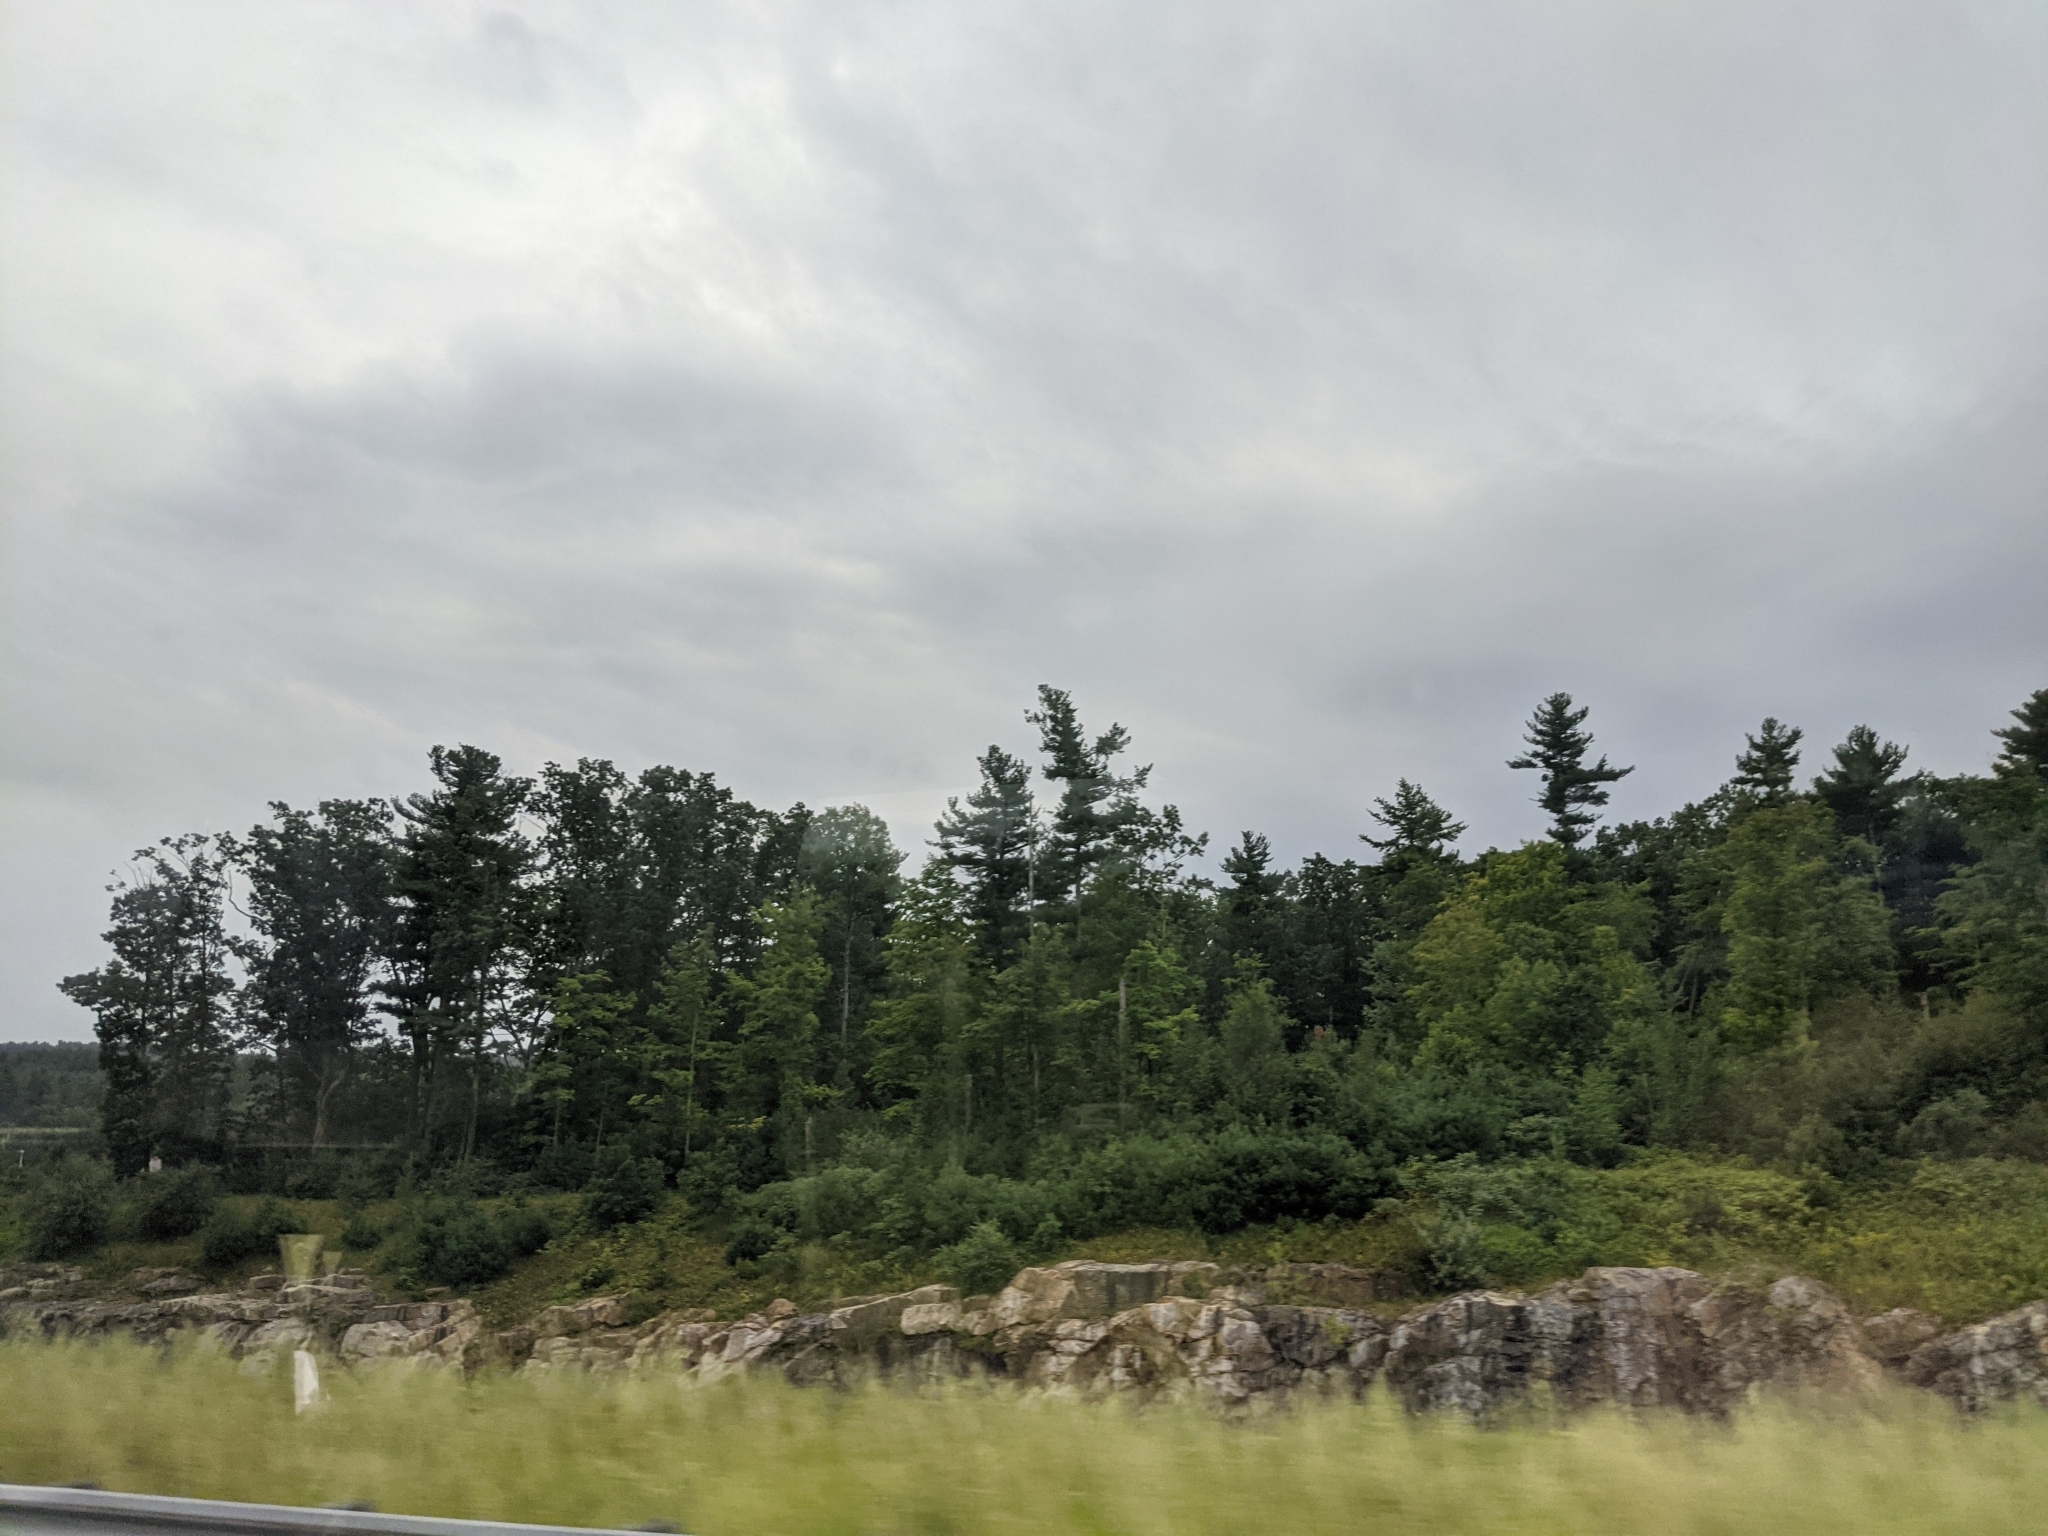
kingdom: Plantae
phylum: Tracheophyta
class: Pinopsida
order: Pinales
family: Pinaceae
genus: Pinus
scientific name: Pinus strobus
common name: Weymouth pine
